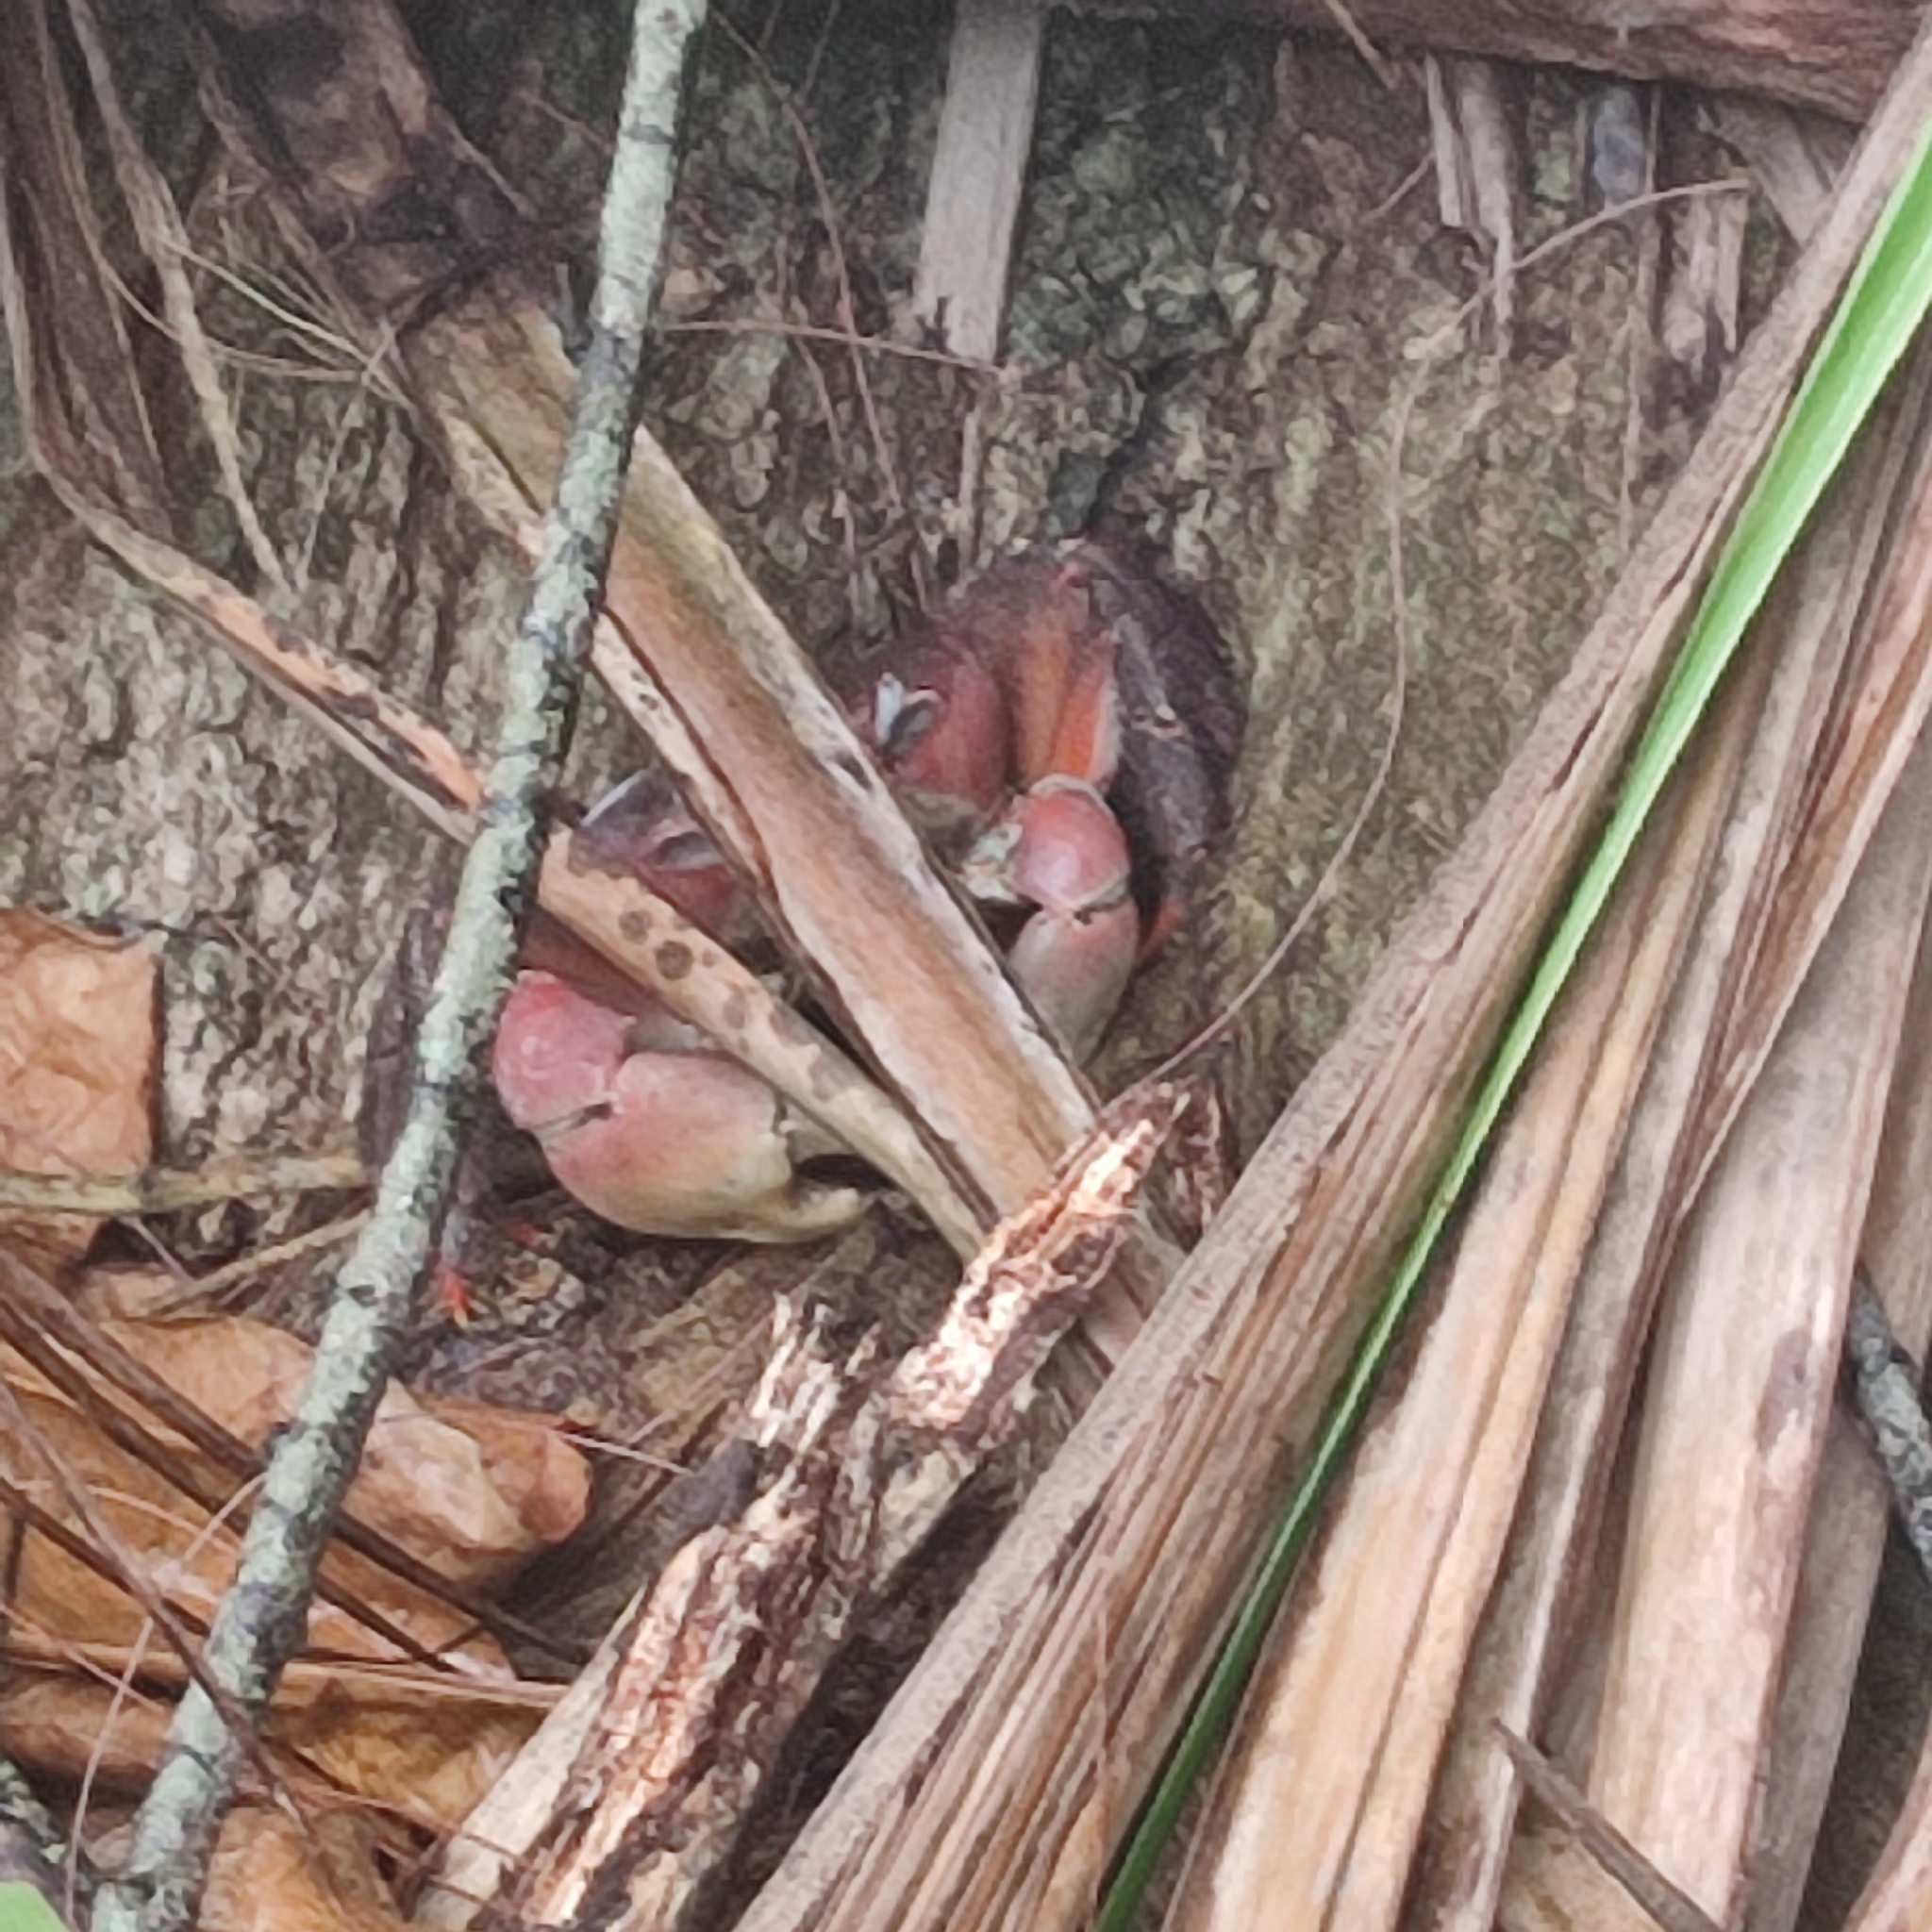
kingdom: Animalia
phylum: Arthropoda
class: Malacostraca
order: Decapoda
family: Gecarcinidae
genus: Cardisoma
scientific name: Cardisoma carnifex
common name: Brown land crab
